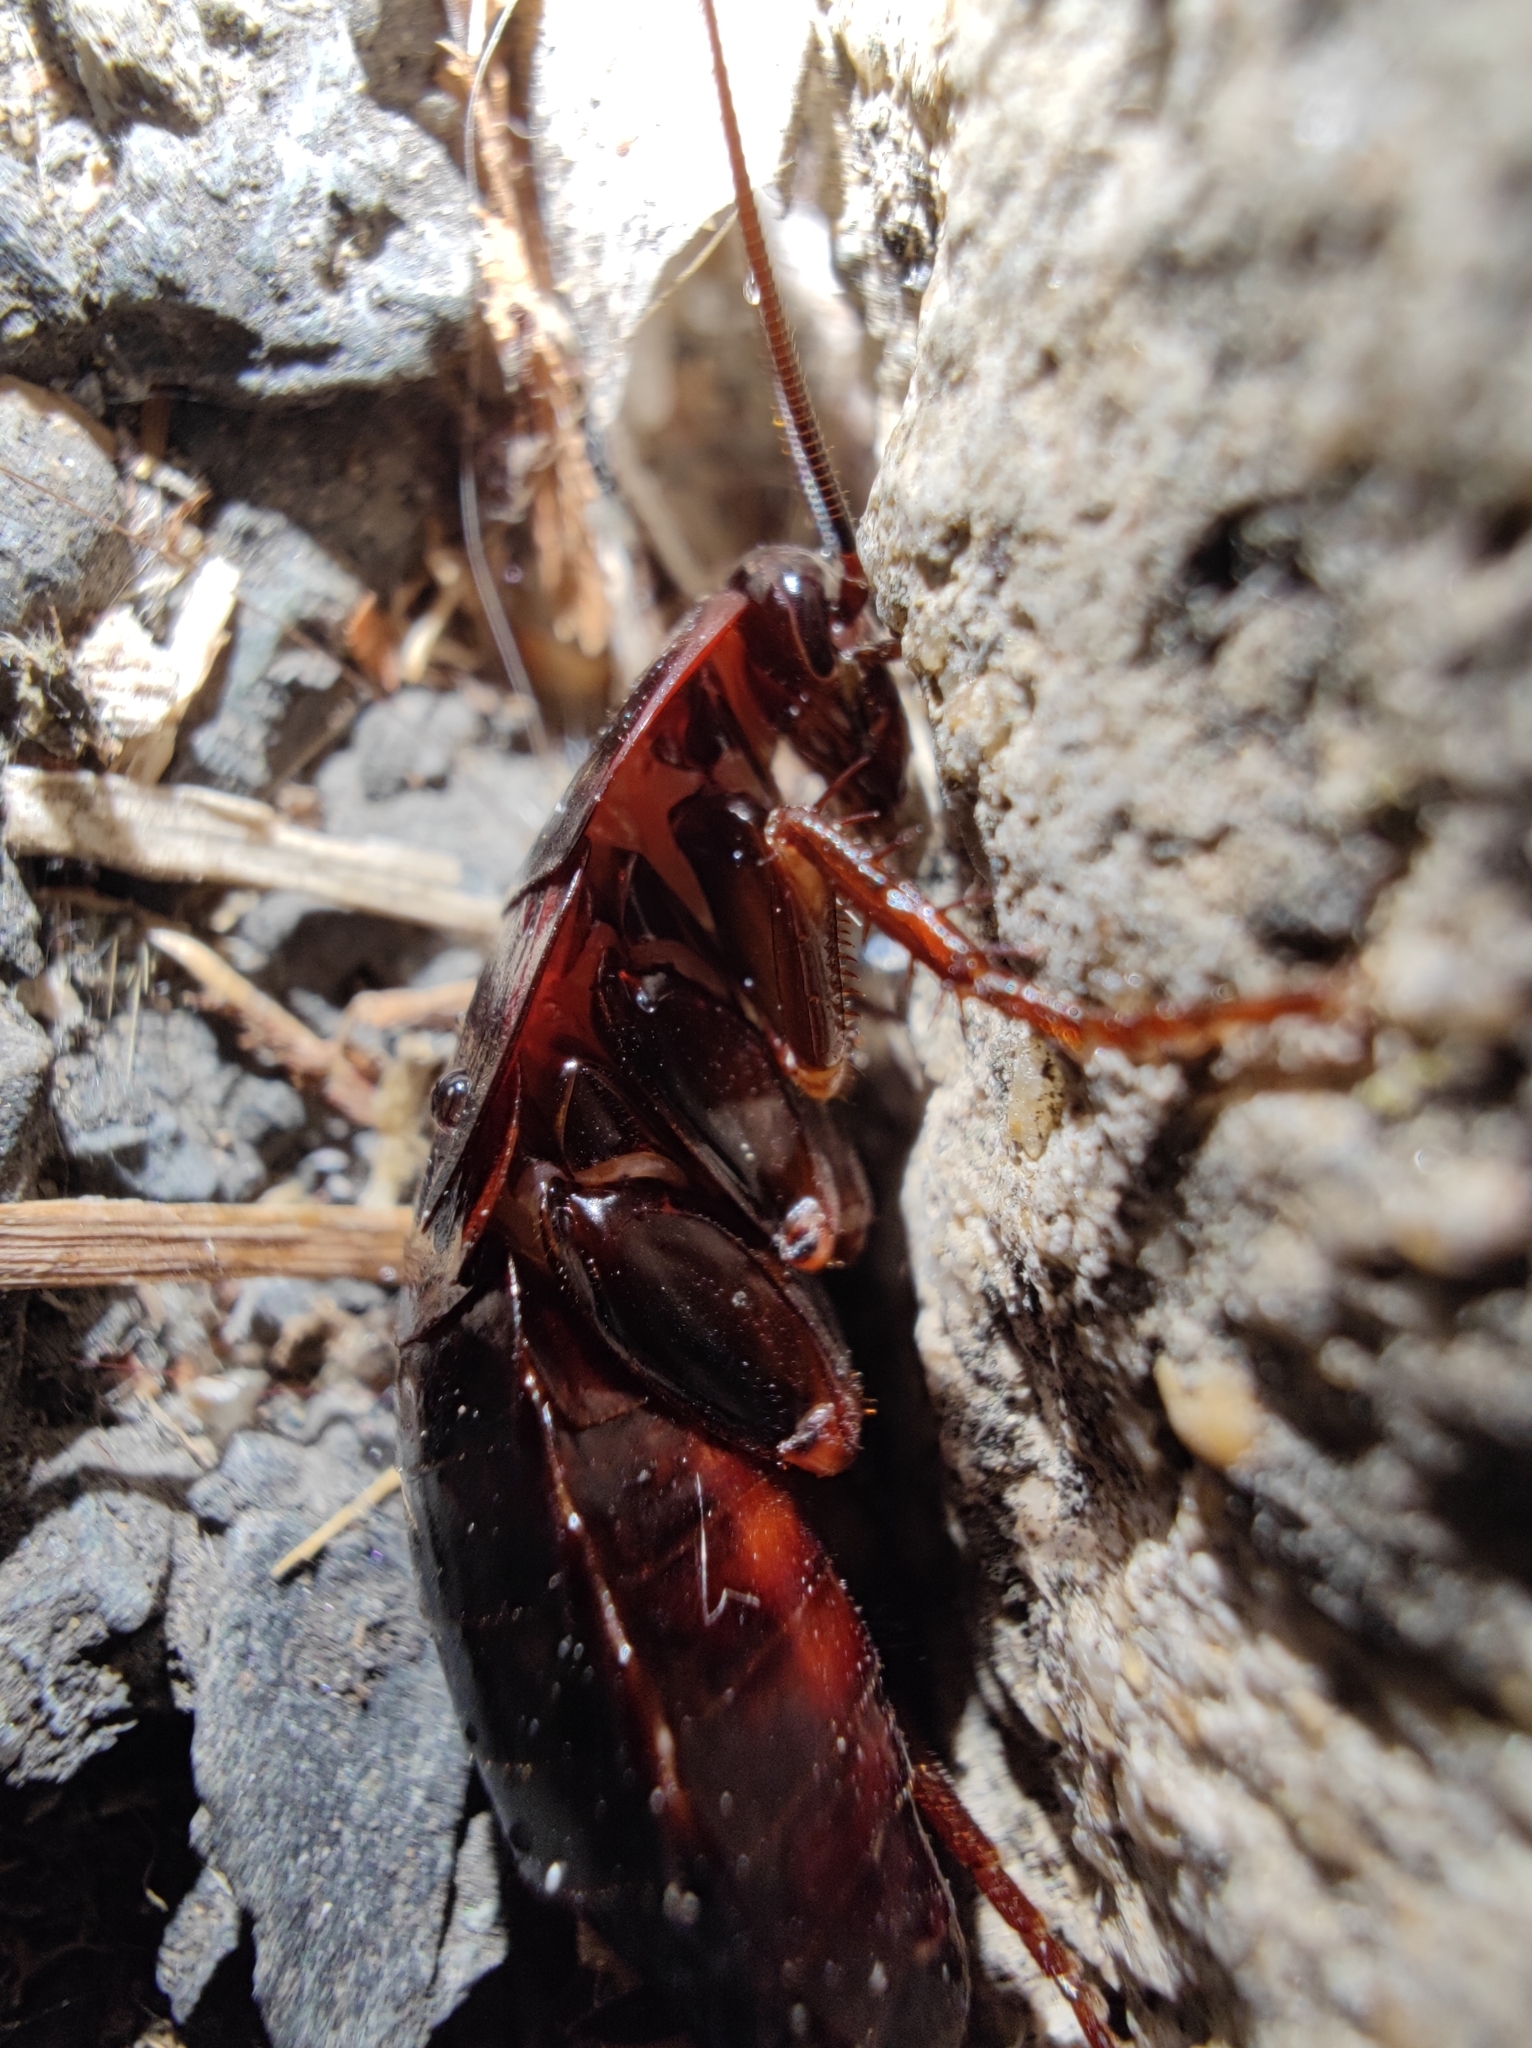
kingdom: Animalia
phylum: Arthropoda
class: Insecta
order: Blattodea
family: Blattidae
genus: Blatta
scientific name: Blatta orientalis
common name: Oriental cockroach
